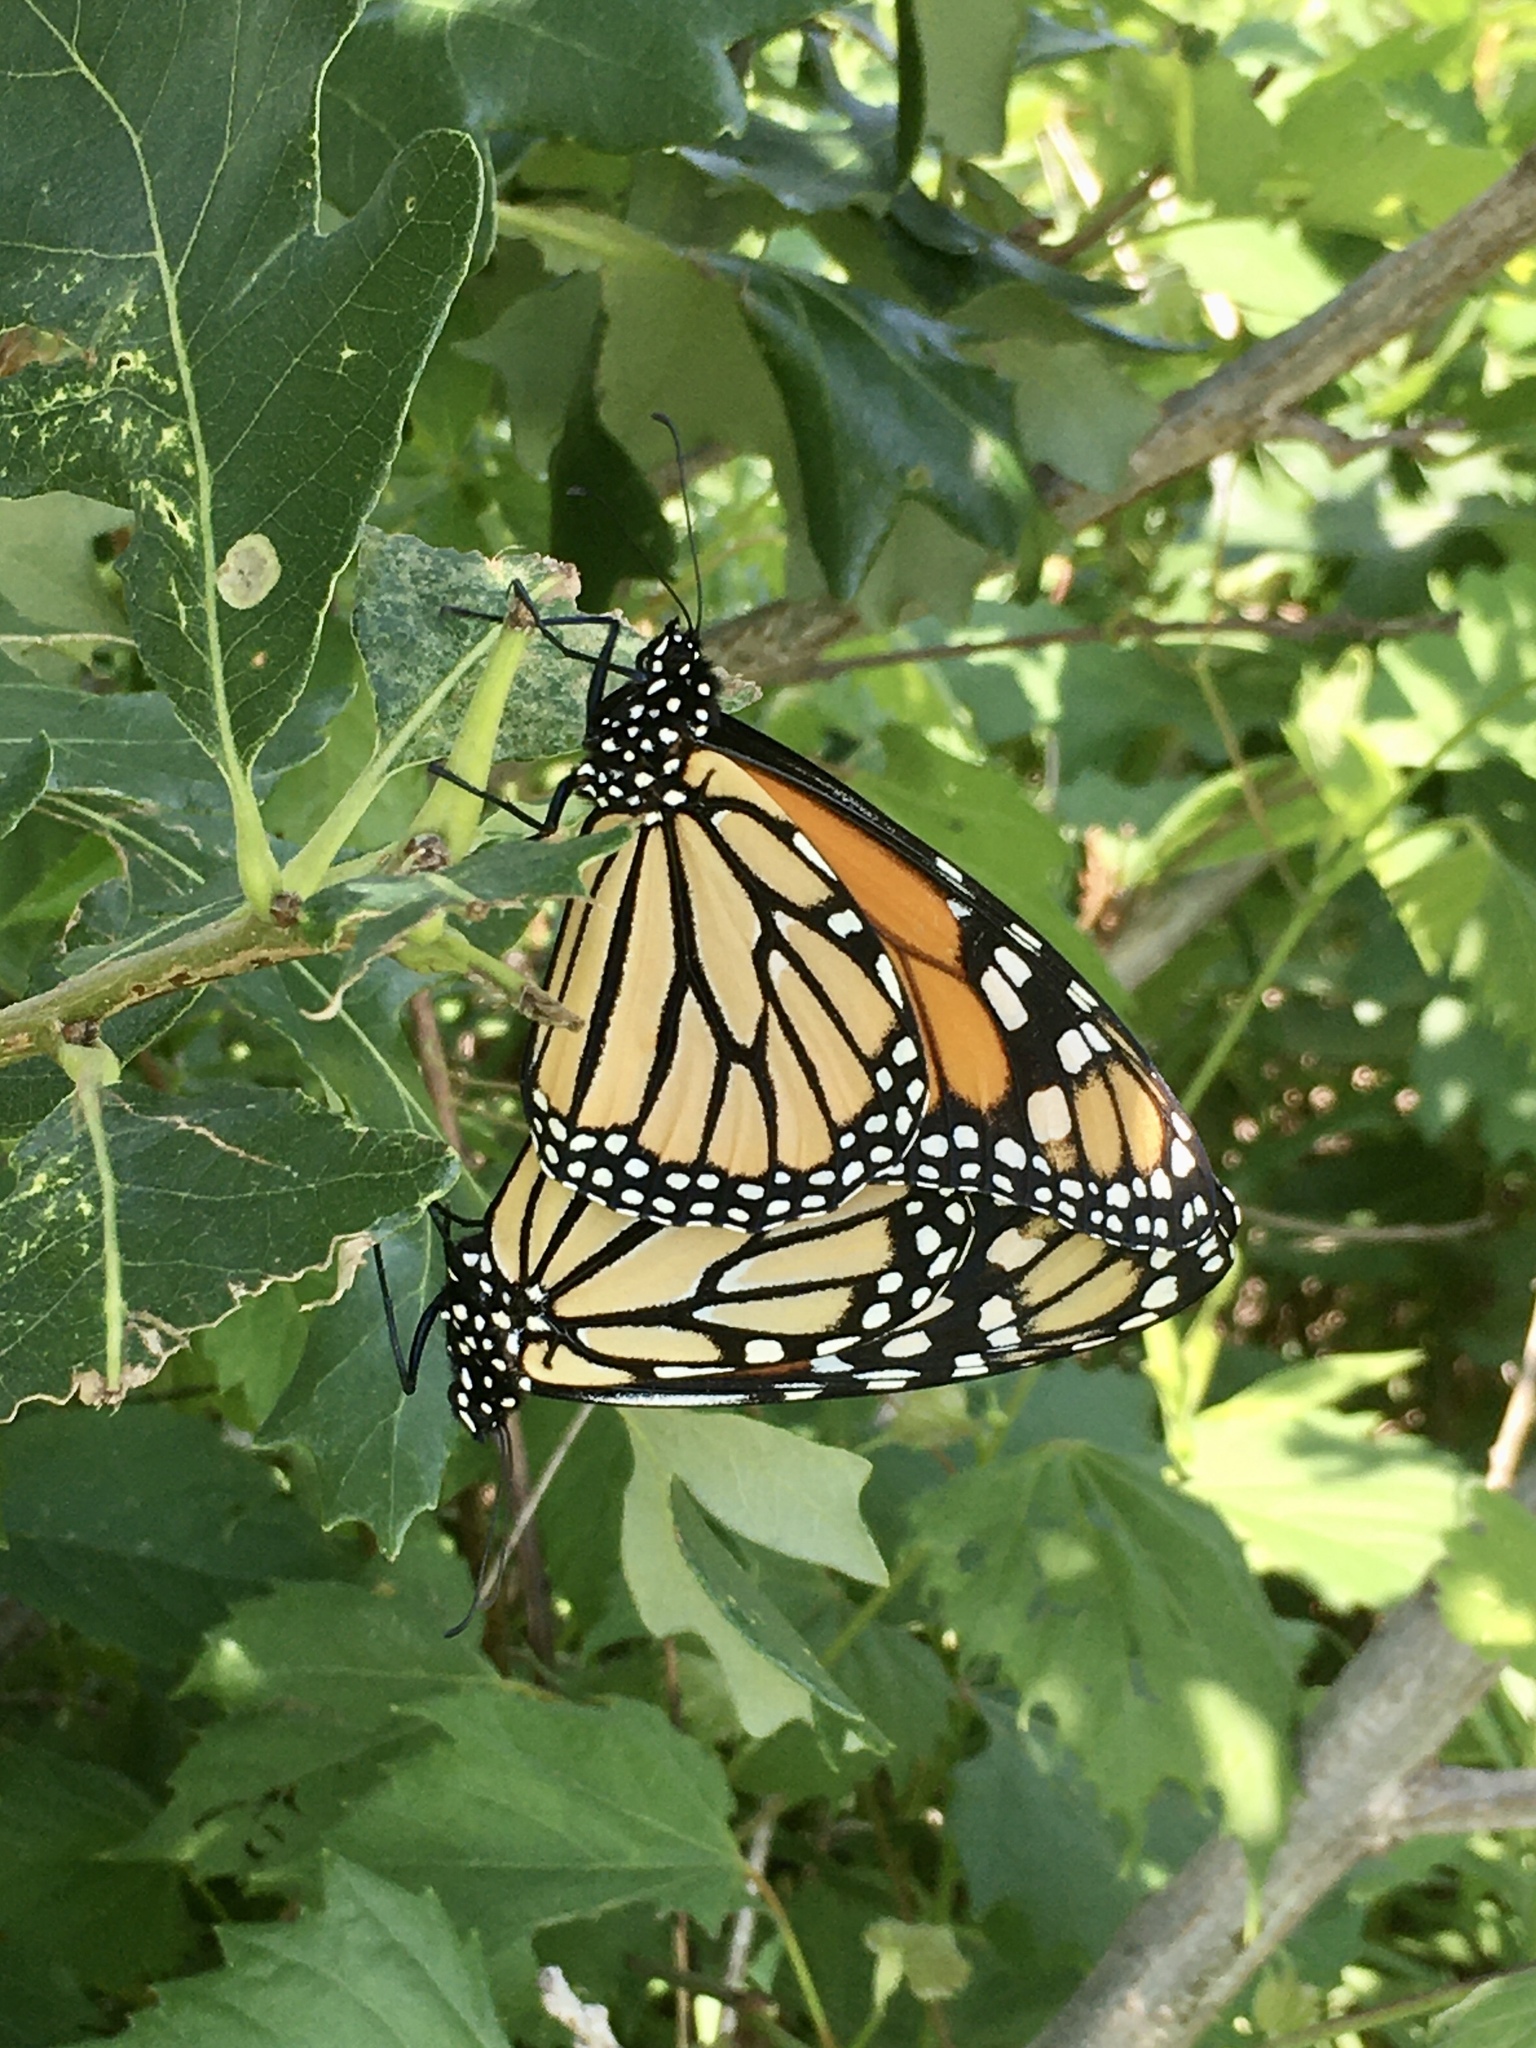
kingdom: Animalia
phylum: Arthropoda
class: Insecta
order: Lepidoptera
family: Nymphalidae
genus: Danaus
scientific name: Danaus plexippus
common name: Monarch
